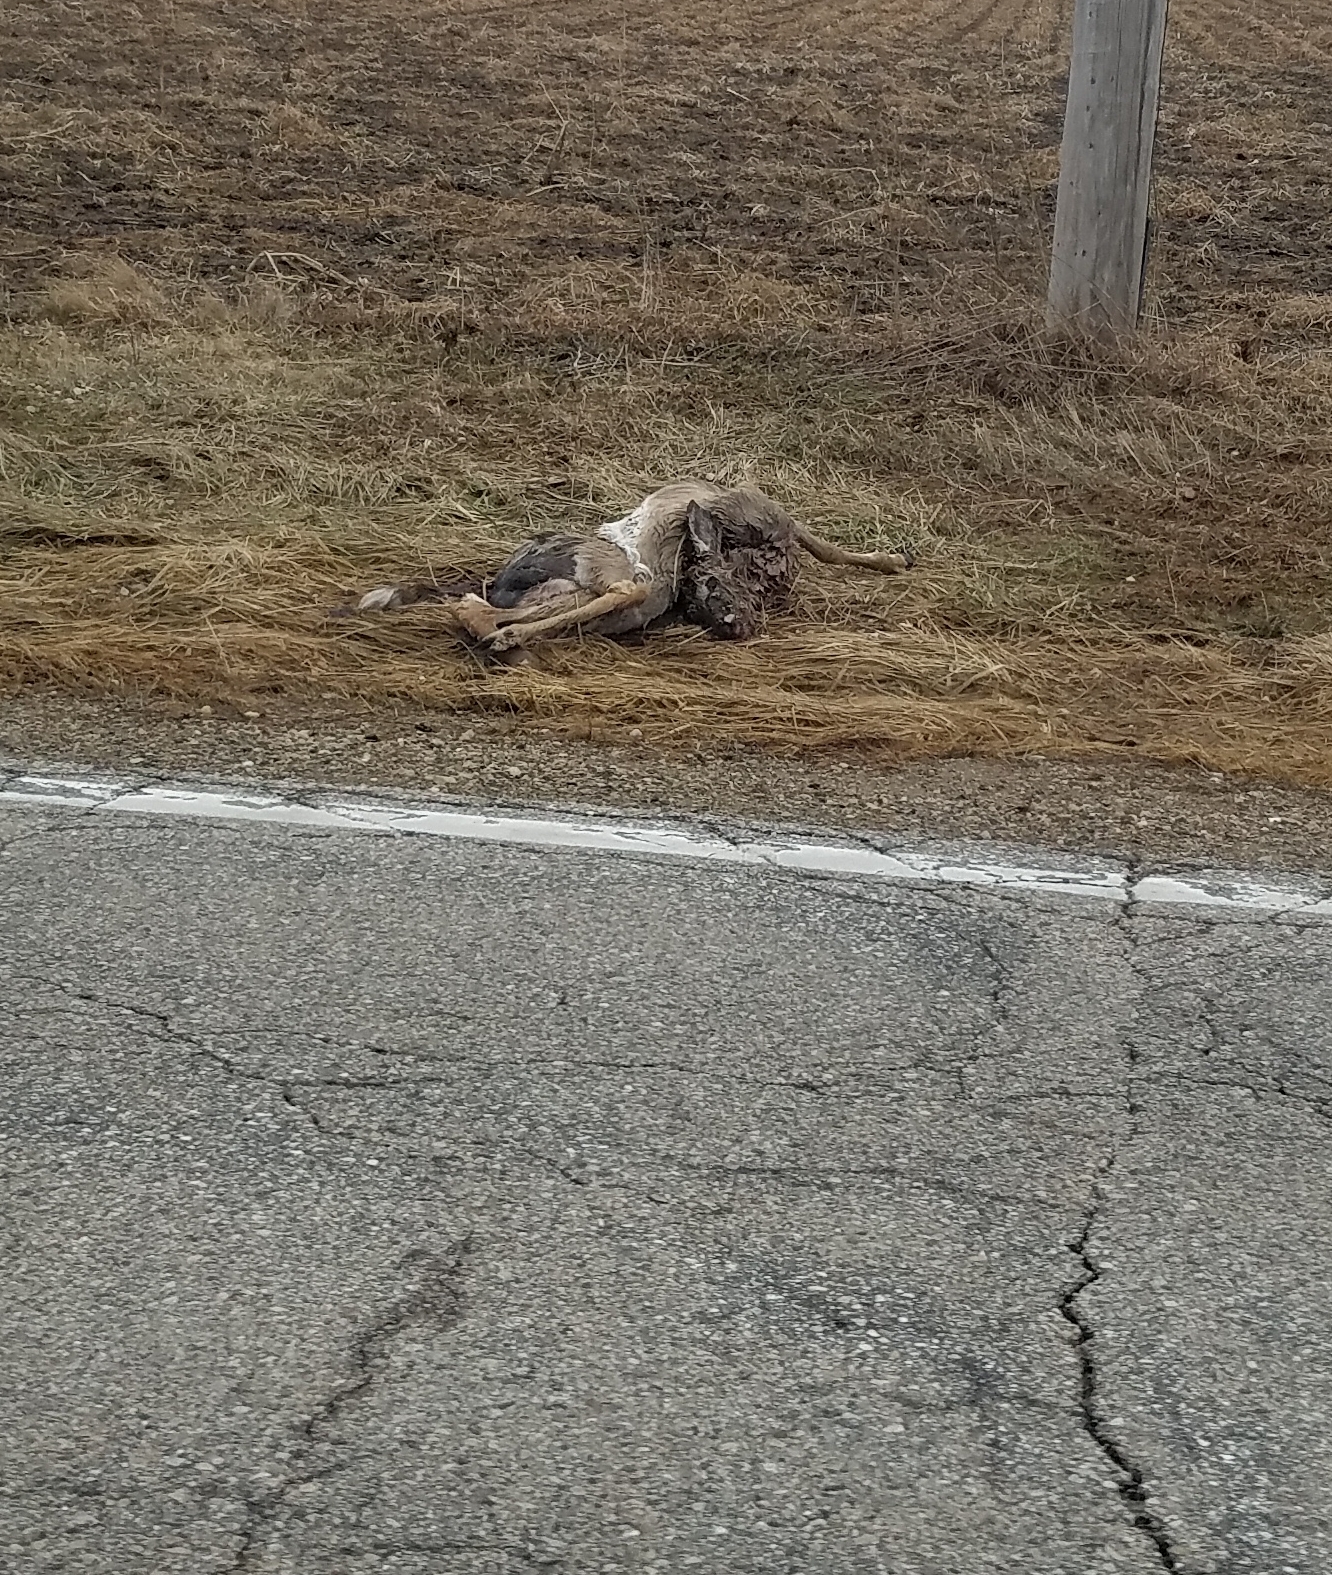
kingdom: Animalia
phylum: Chordata
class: Mammalia
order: Artiodactyla
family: Cervidae
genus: Odocoileus
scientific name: Odocoileus virginianus
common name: White-tailed deer
